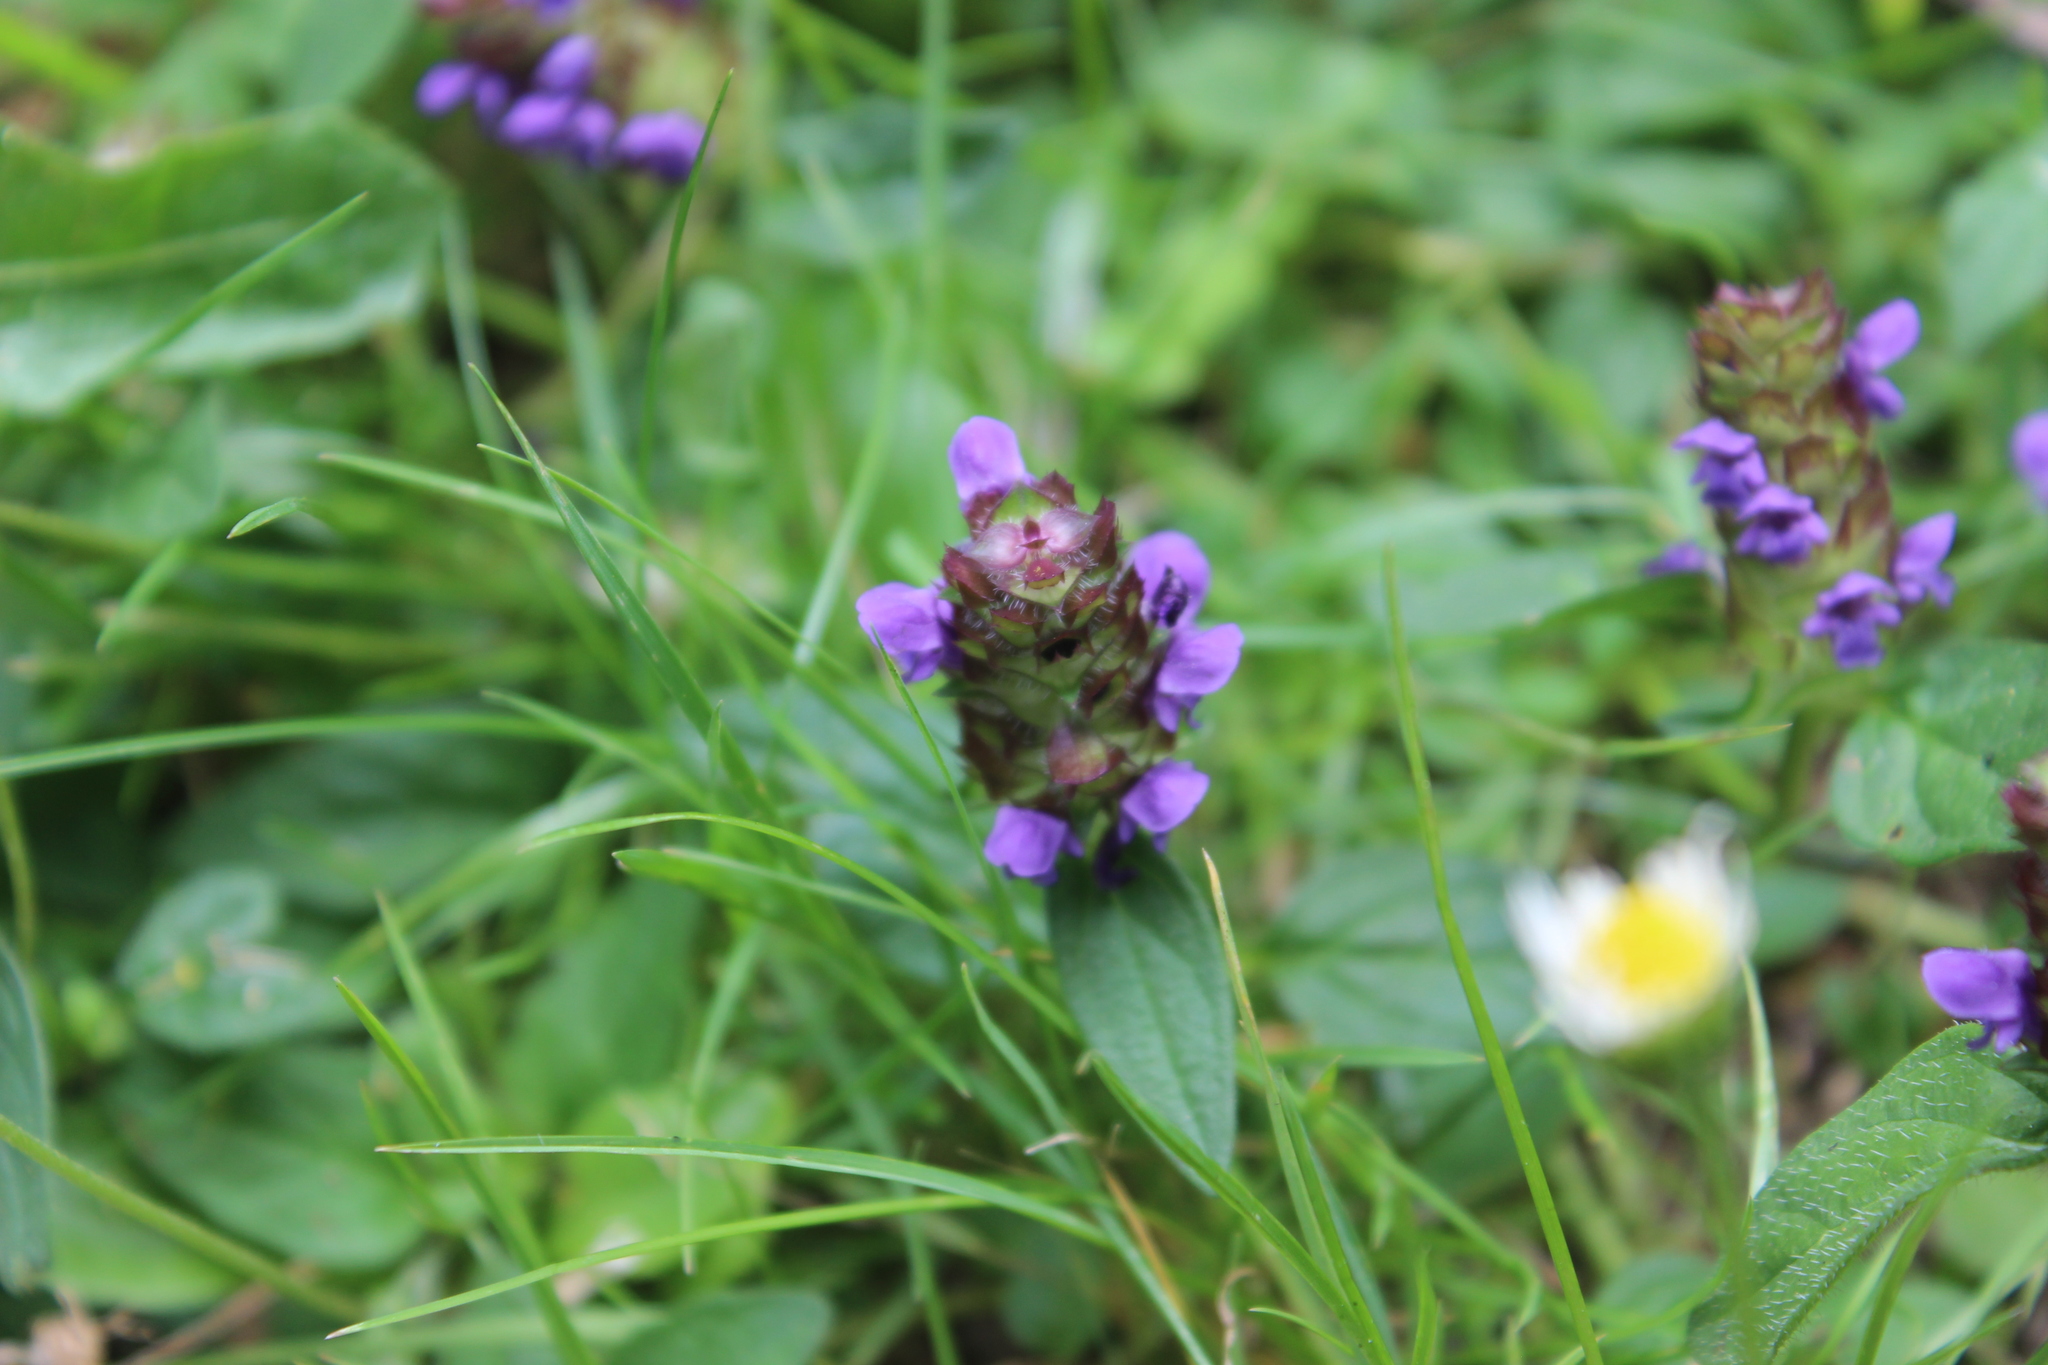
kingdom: Plantae
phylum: Tracheophyta
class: Magnoliopsida
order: Lamiales
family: Lamiaceae
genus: Prunella
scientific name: Prunella vulgaris
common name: Heal-all
